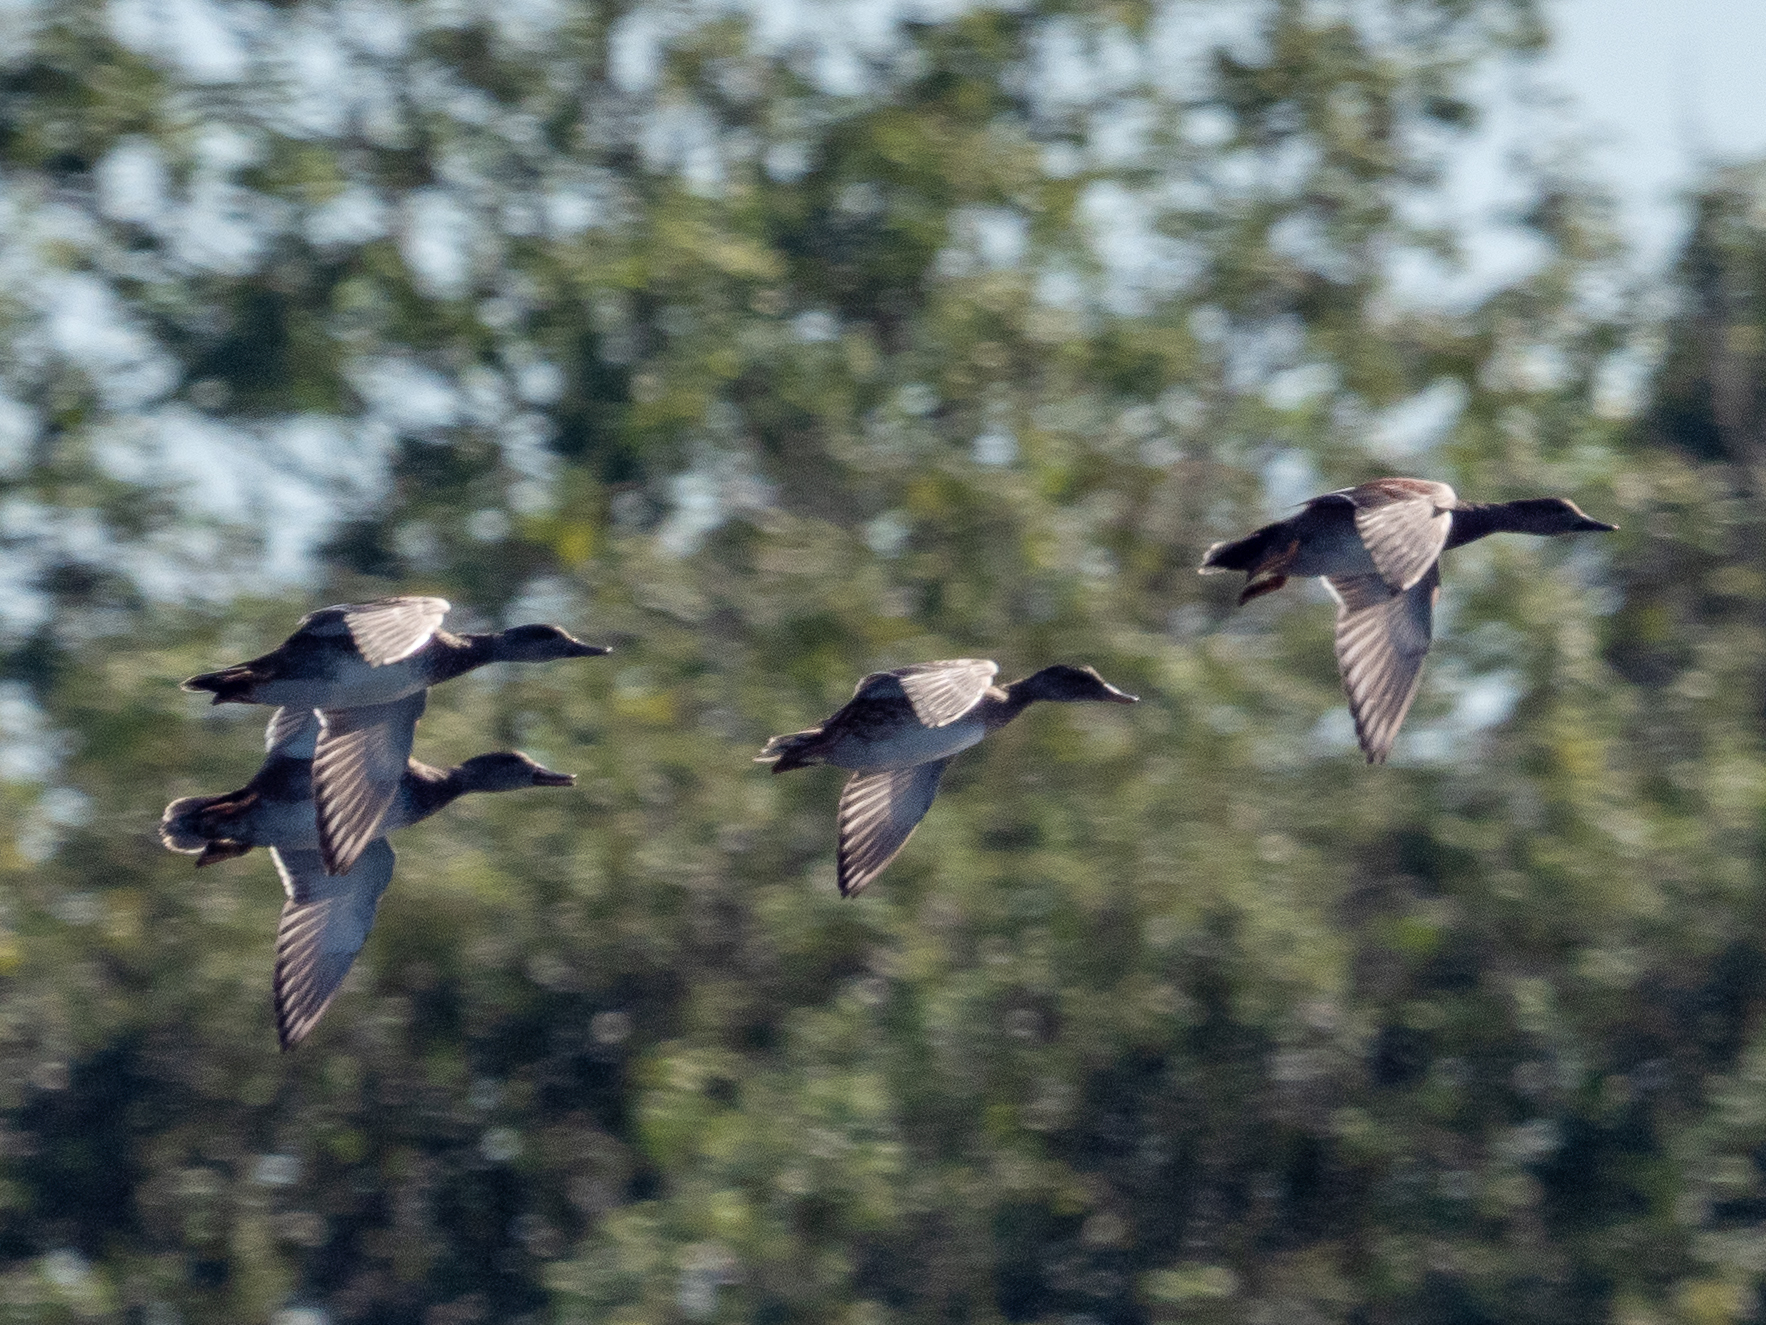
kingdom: Animalia
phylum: Chordata
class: Aves
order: Anseriformes
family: Anatidae
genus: Mareca
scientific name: Mareca strepera
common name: Gadwall
